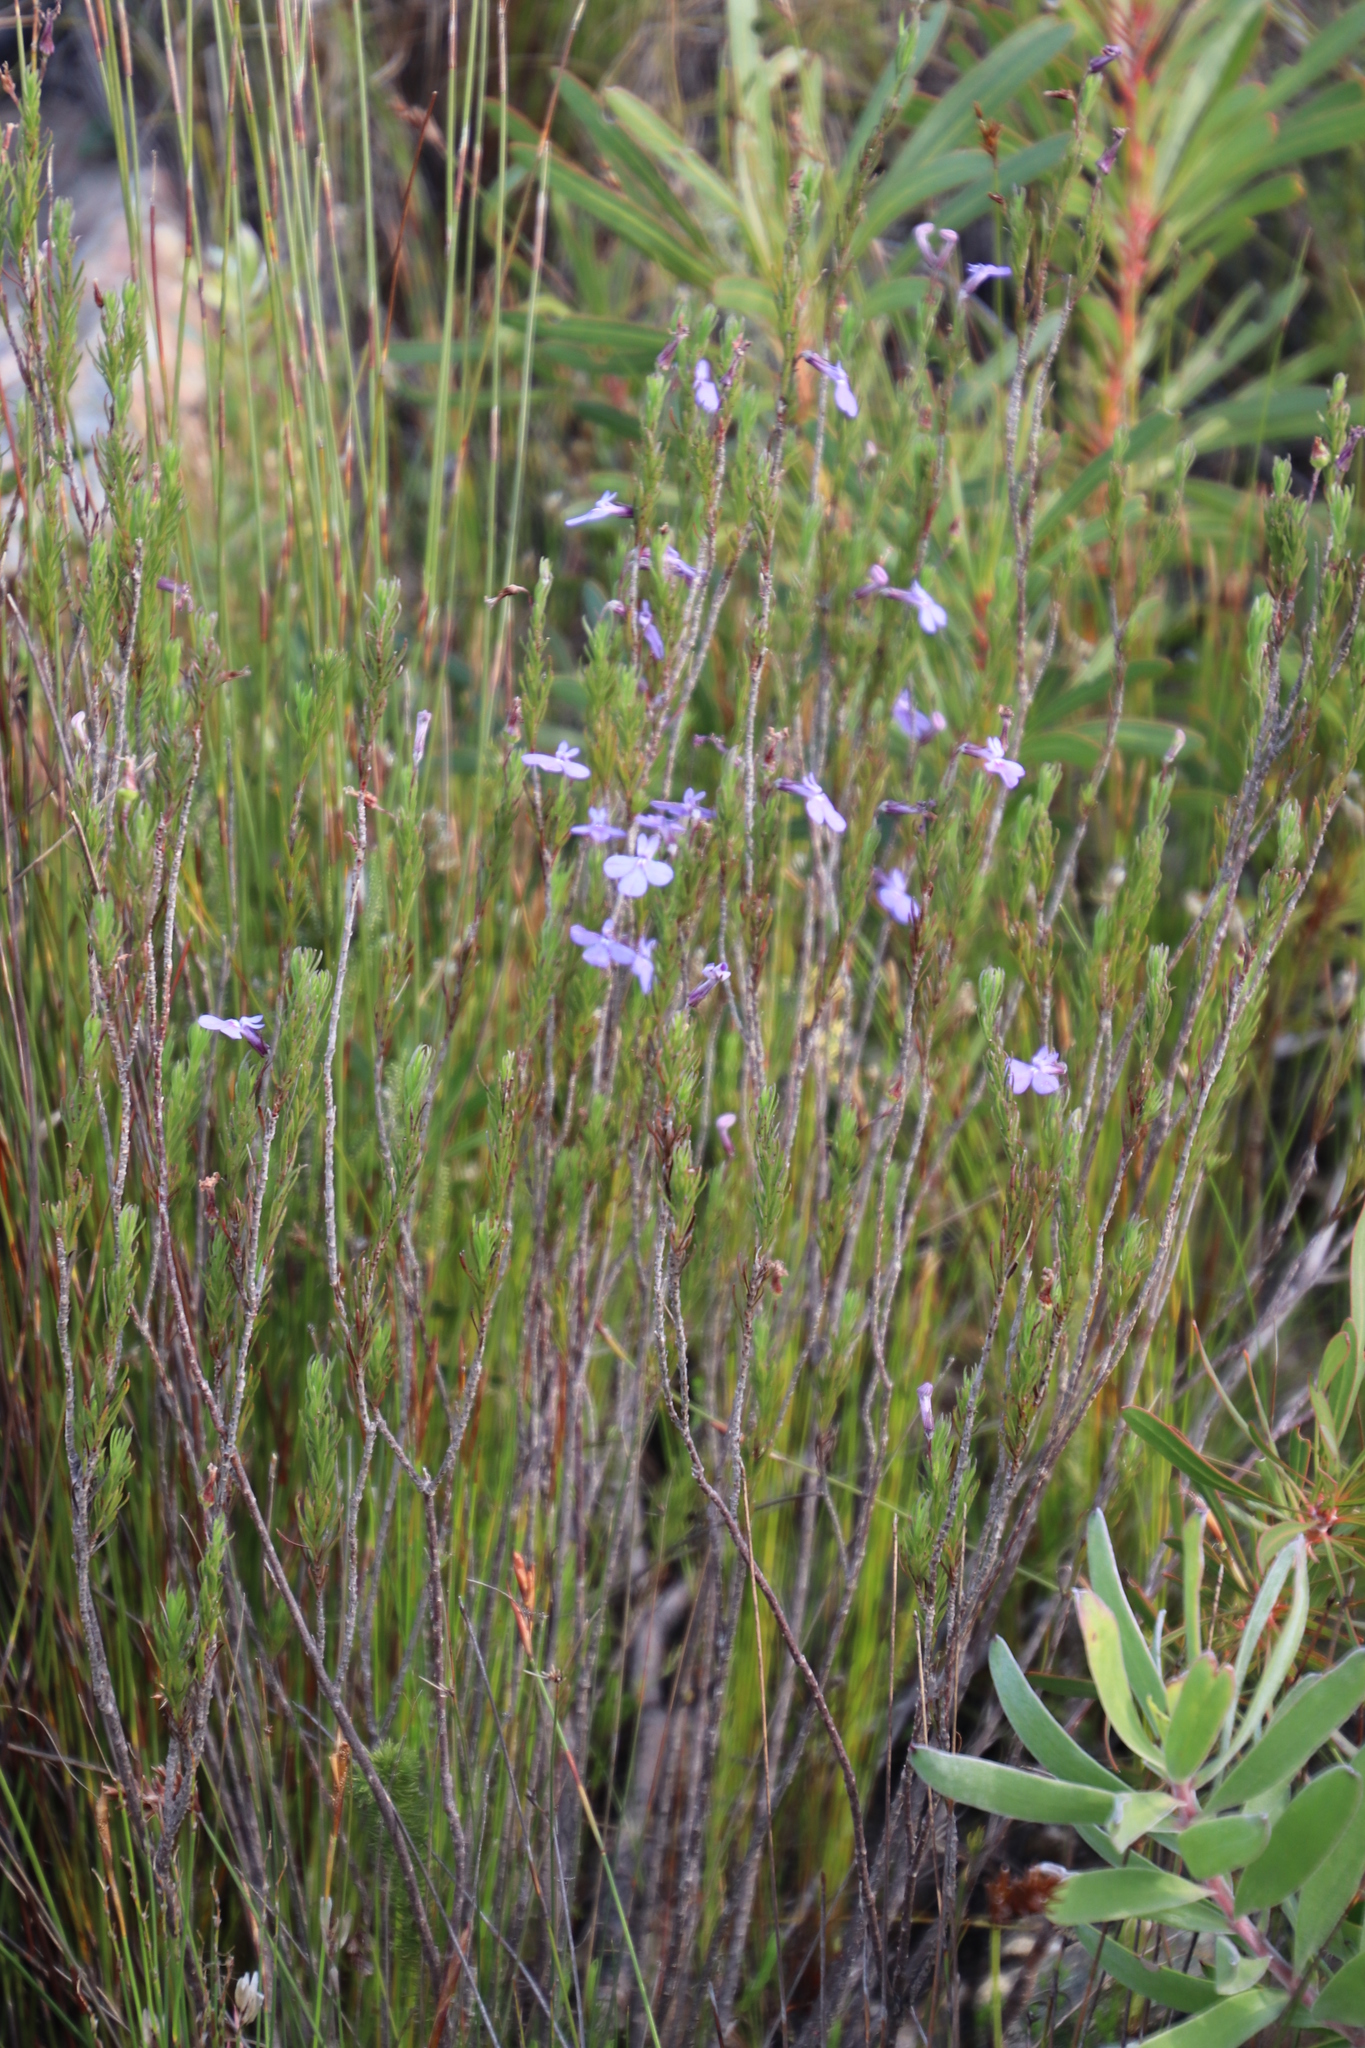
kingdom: Plantae
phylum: Tracheophyta
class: Magnoliopsida
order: Asterales
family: Campanulaceae
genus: Lobelia
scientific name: Lobelia pinifolia
